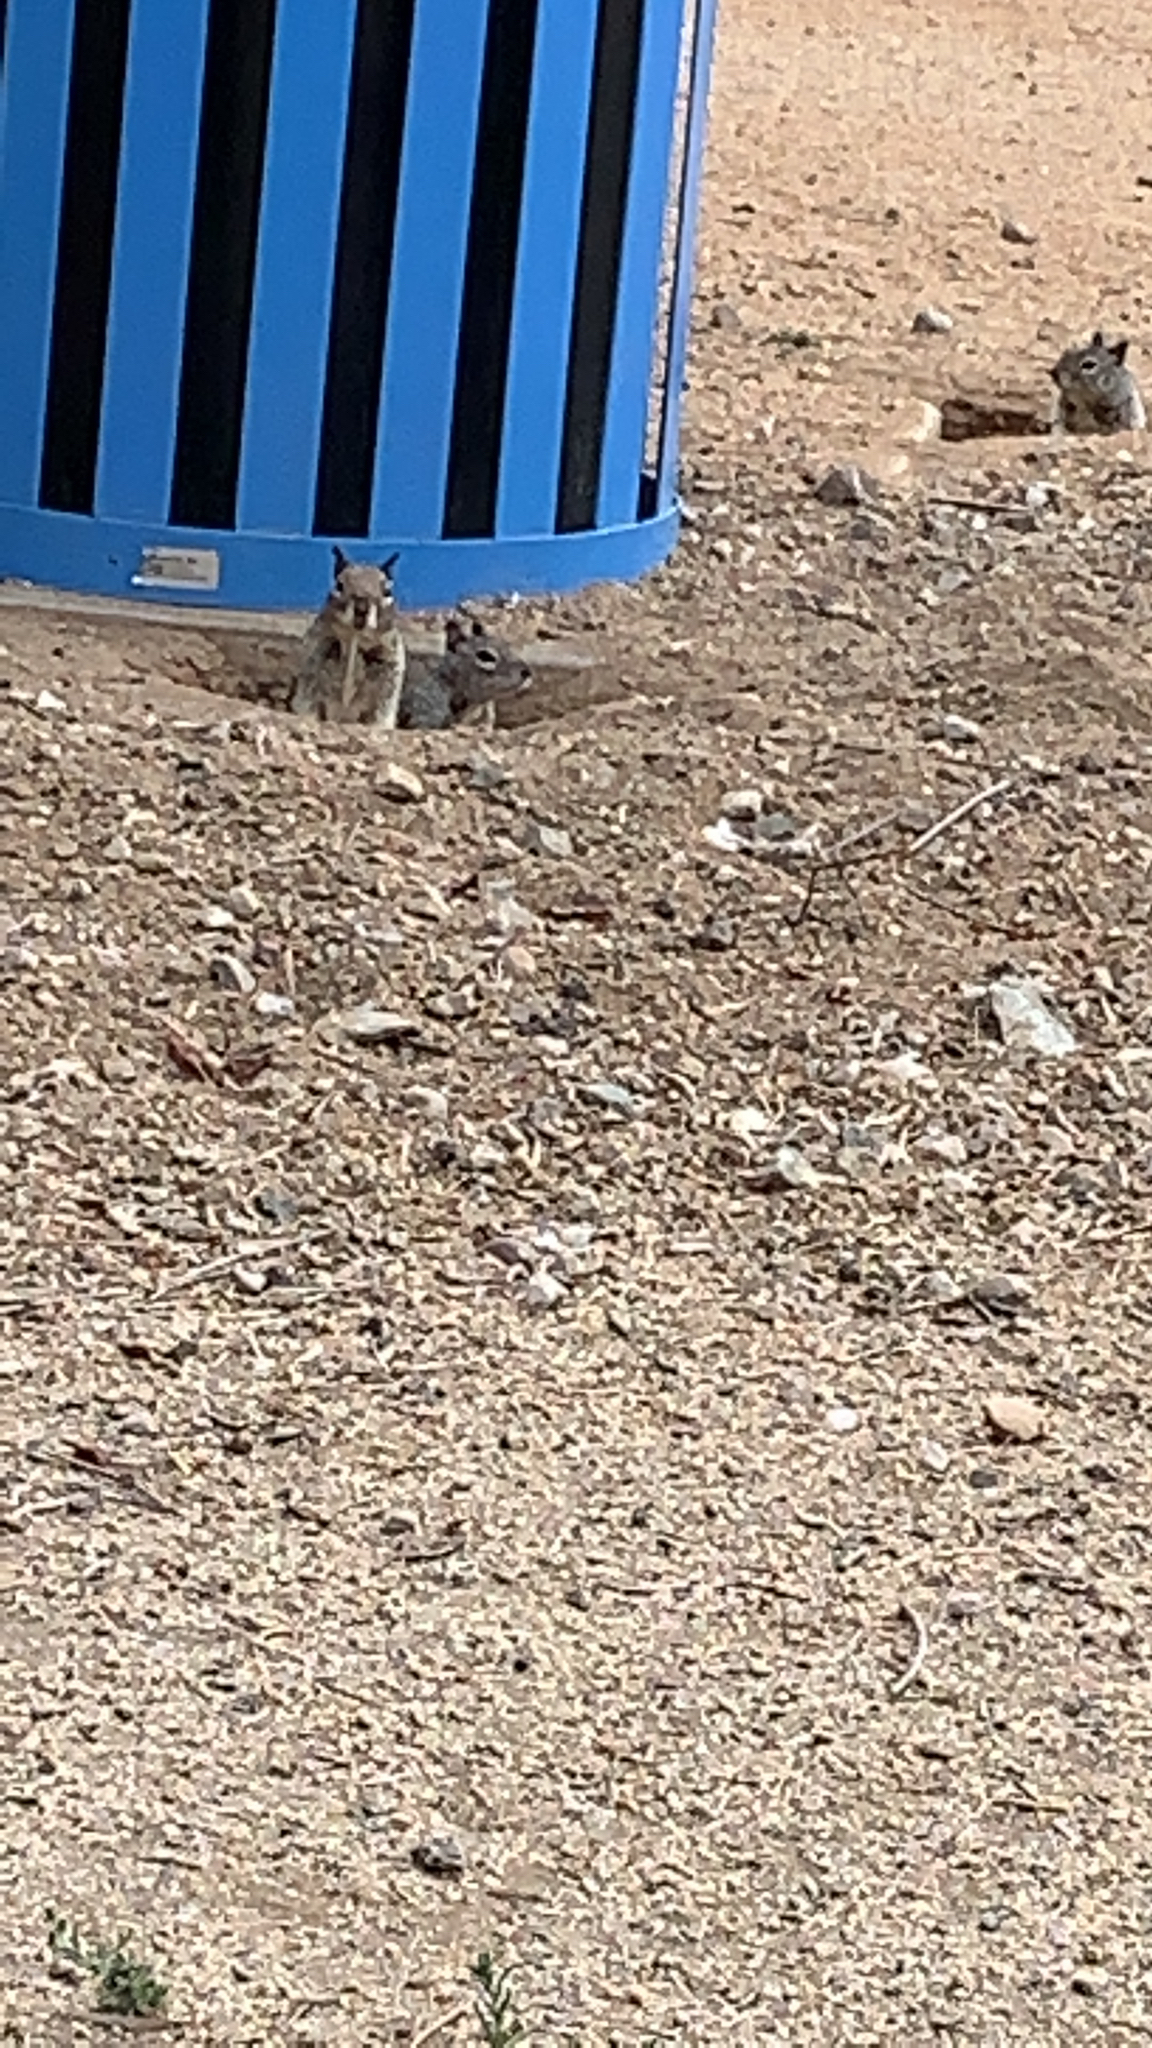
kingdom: Animalia
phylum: Chordata
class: Mammalia
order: Rodentia
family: Sciuridae
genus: Otospermophilus
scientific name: Otospermophilus beecheyi
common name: California ground squirrel
